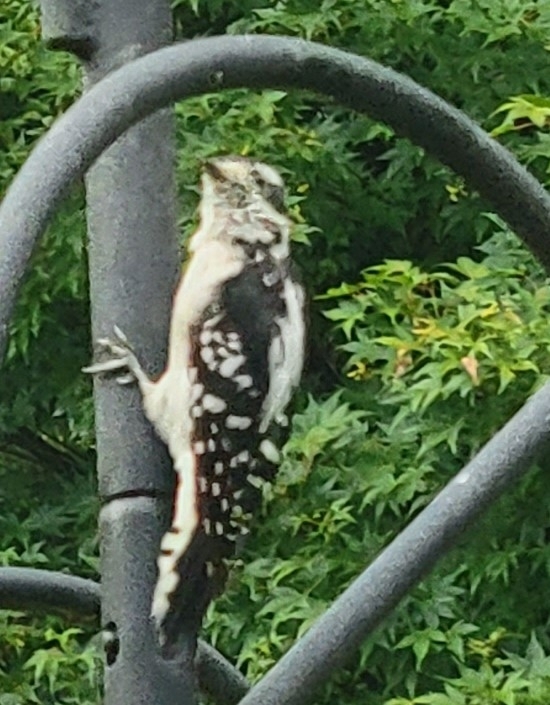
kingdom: Animalia
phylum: Chordata
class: Aves
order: Piciformes
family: Picidae
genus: Dryobates
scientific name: Dryobates pubescens
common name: Downy woodpecker
